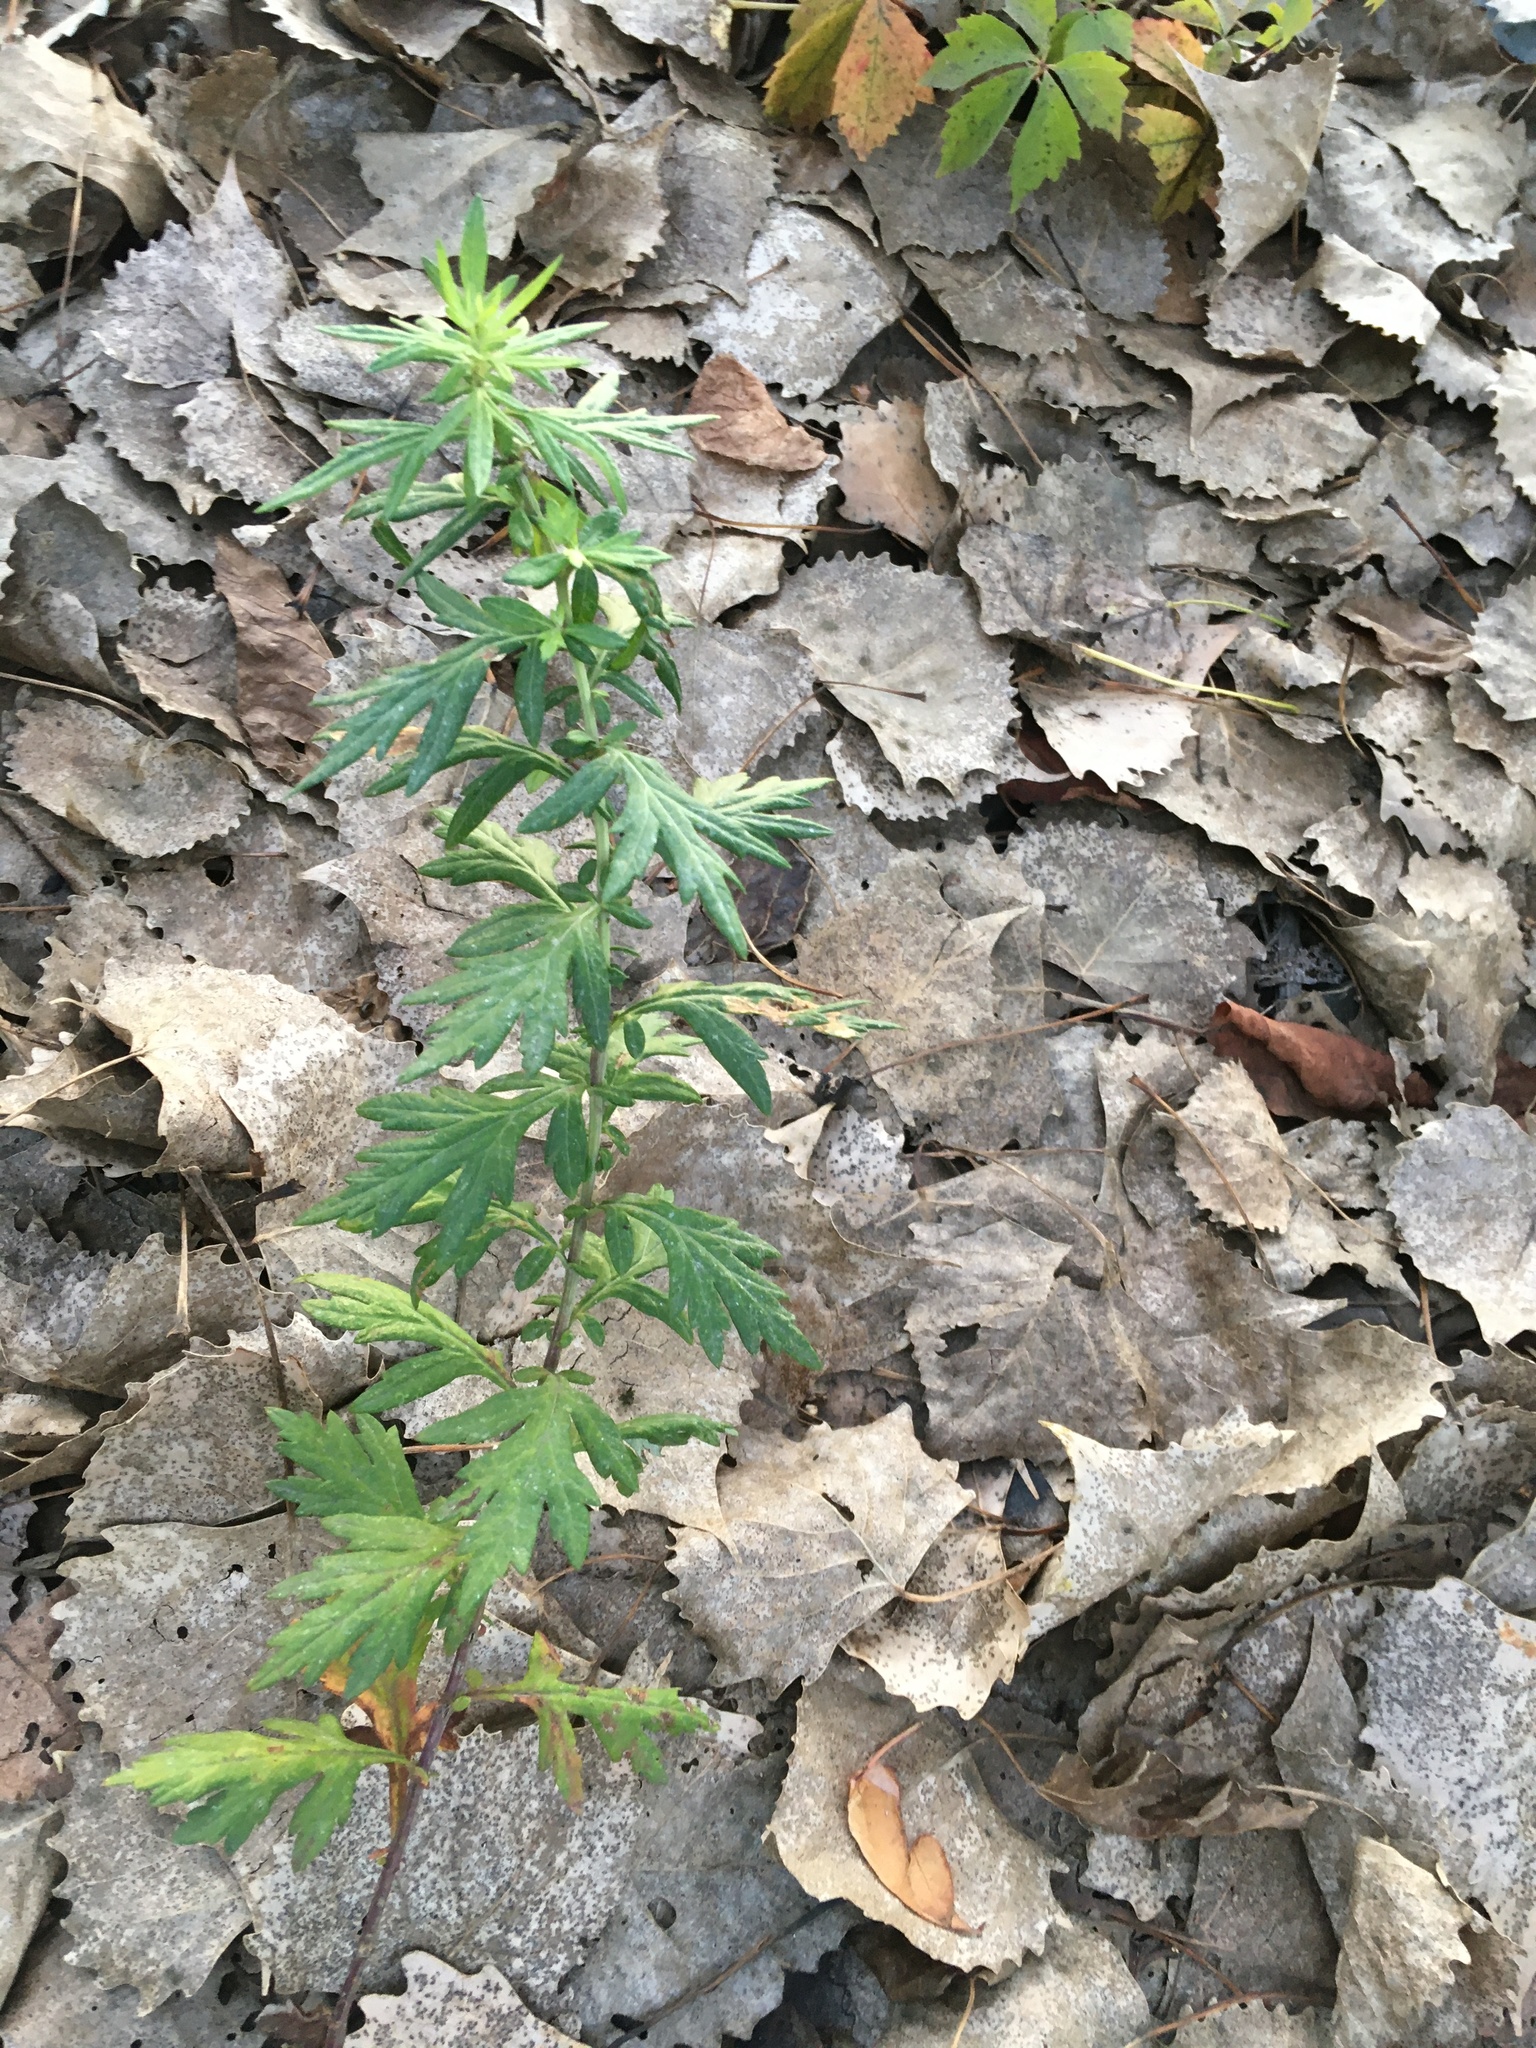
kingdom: Plantae
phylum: Tracheophyta
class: Magnoliopsida
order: Asterales
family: Asteraceae
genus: Artemisia
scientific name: Artemisia vulgaris
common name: Mugwort
